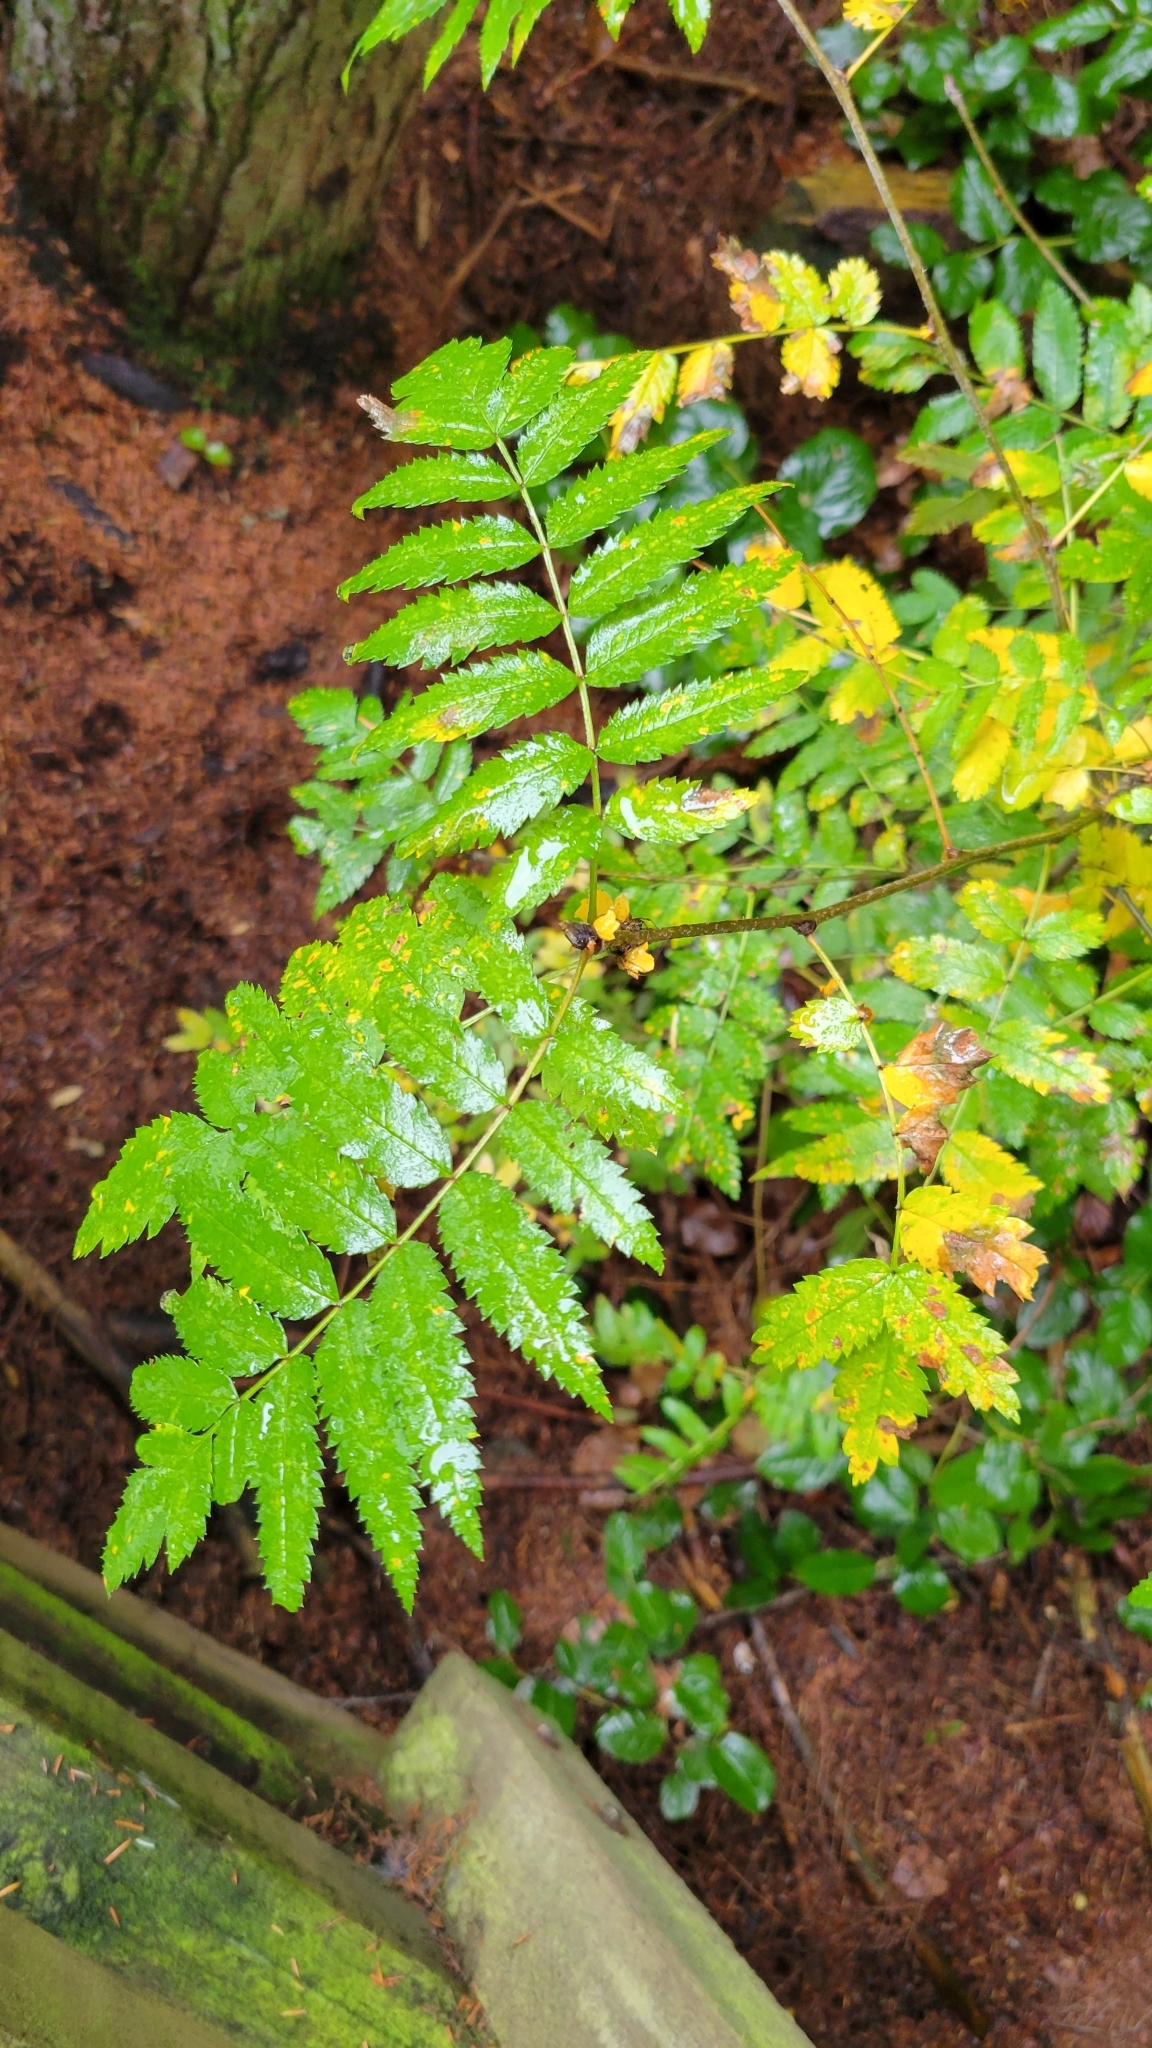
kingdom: Plantae
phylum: Tracheophyta
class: Magnoliopsida
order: Rosales
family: Rosaceae
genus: Sorbus
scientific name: Sorbus aucuparia
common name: Rowan
